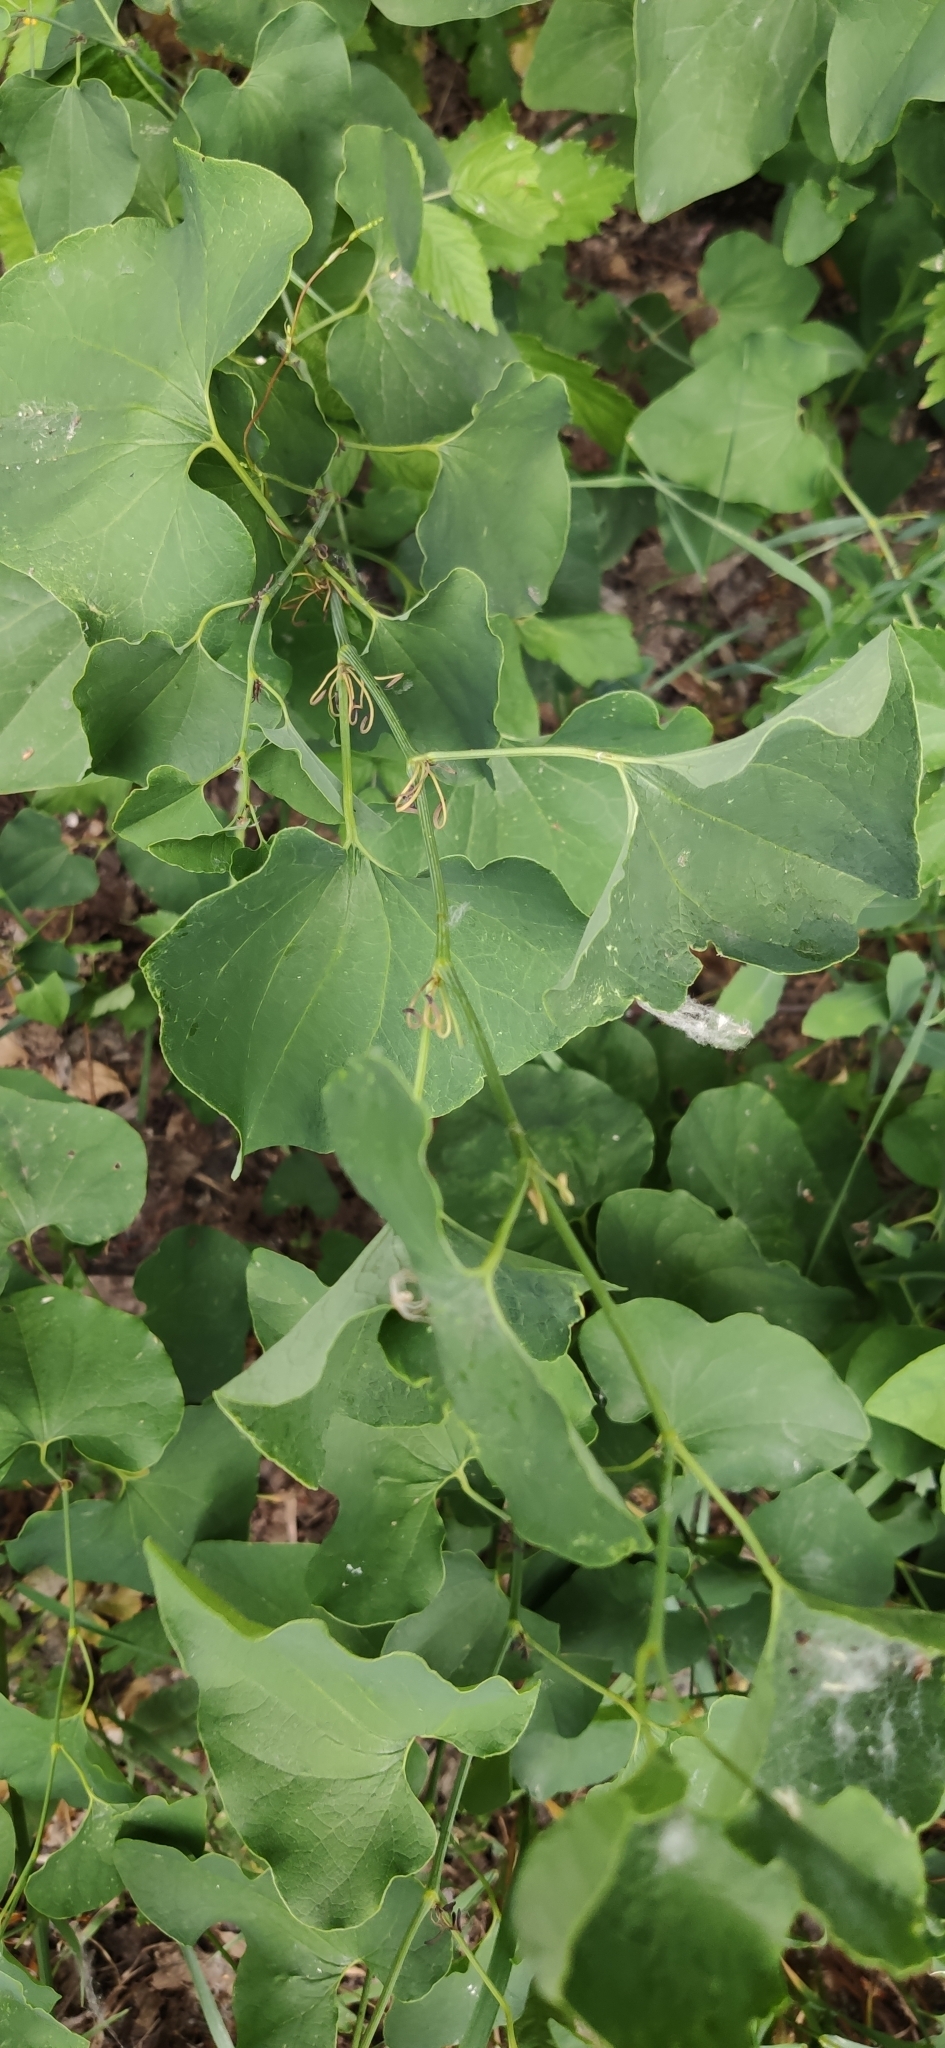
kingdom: Plantae
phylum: Tracheophyta
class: Magnoliopsida
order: Piperales
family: Aristolochiaceae
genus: Aristolochia
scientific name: Aristolochia clematitis
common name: Birthwort
